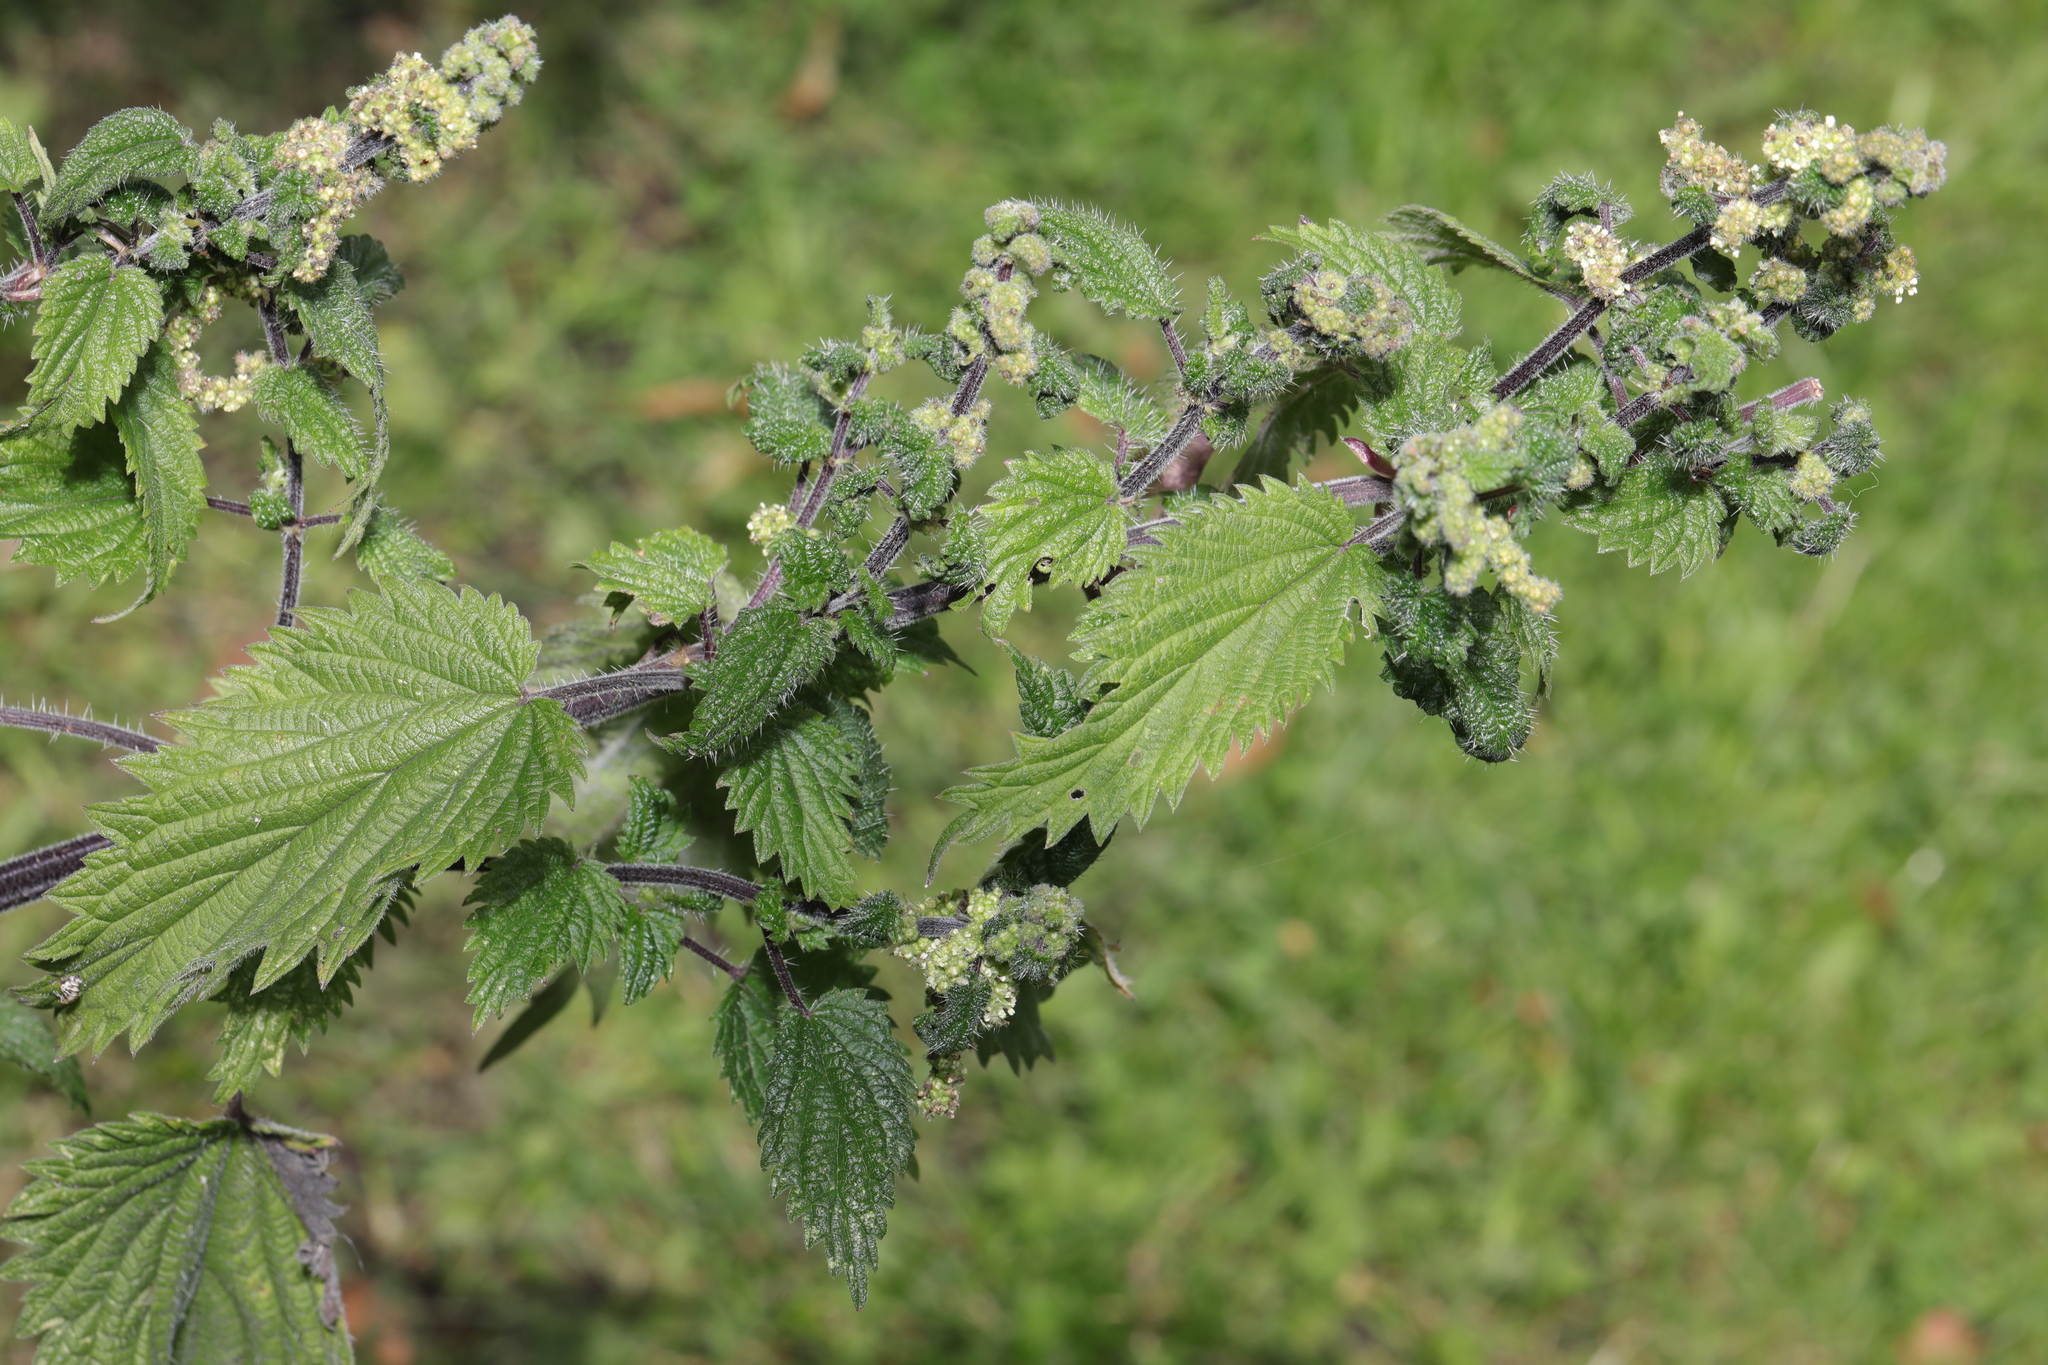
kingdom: Plantae
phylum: Tracheophyta
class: Magnoliopsida
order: Rosales
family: Urticaceae
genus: Urtica
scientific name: Urtica dioica
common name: Common nettle
